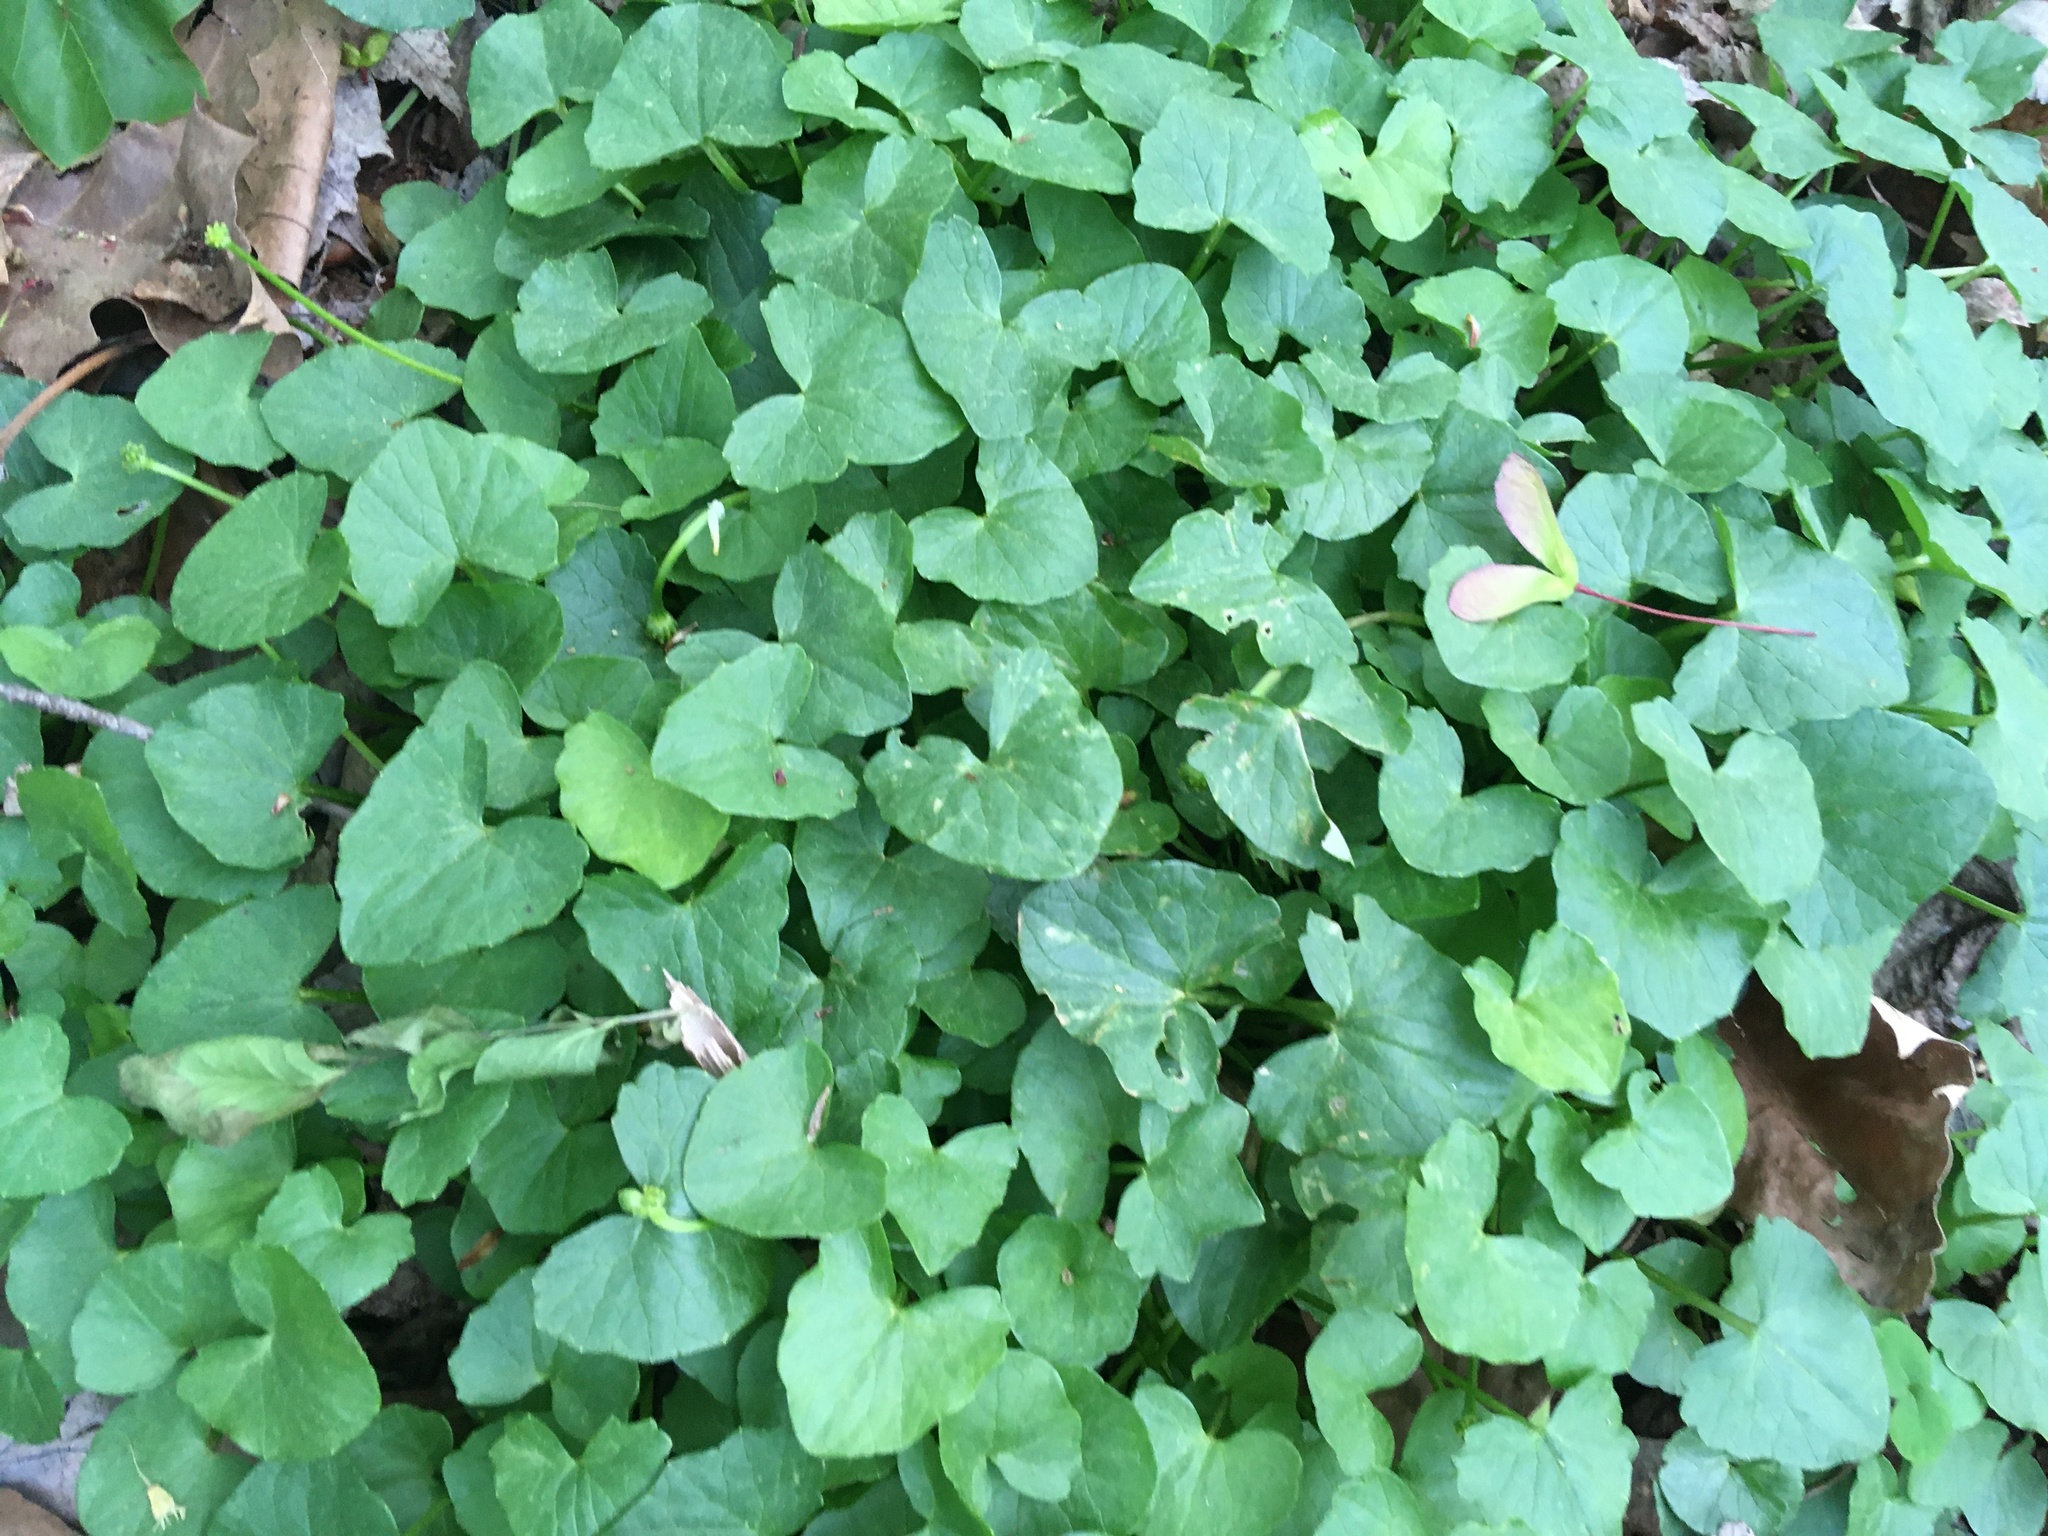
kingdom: Plantae
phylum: Tracheophyta
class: Magnoliopsida
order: Ranunculales
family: Ranunculaceae
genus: Ficaria
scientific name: Ficaria verna
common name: Lesser celandine
